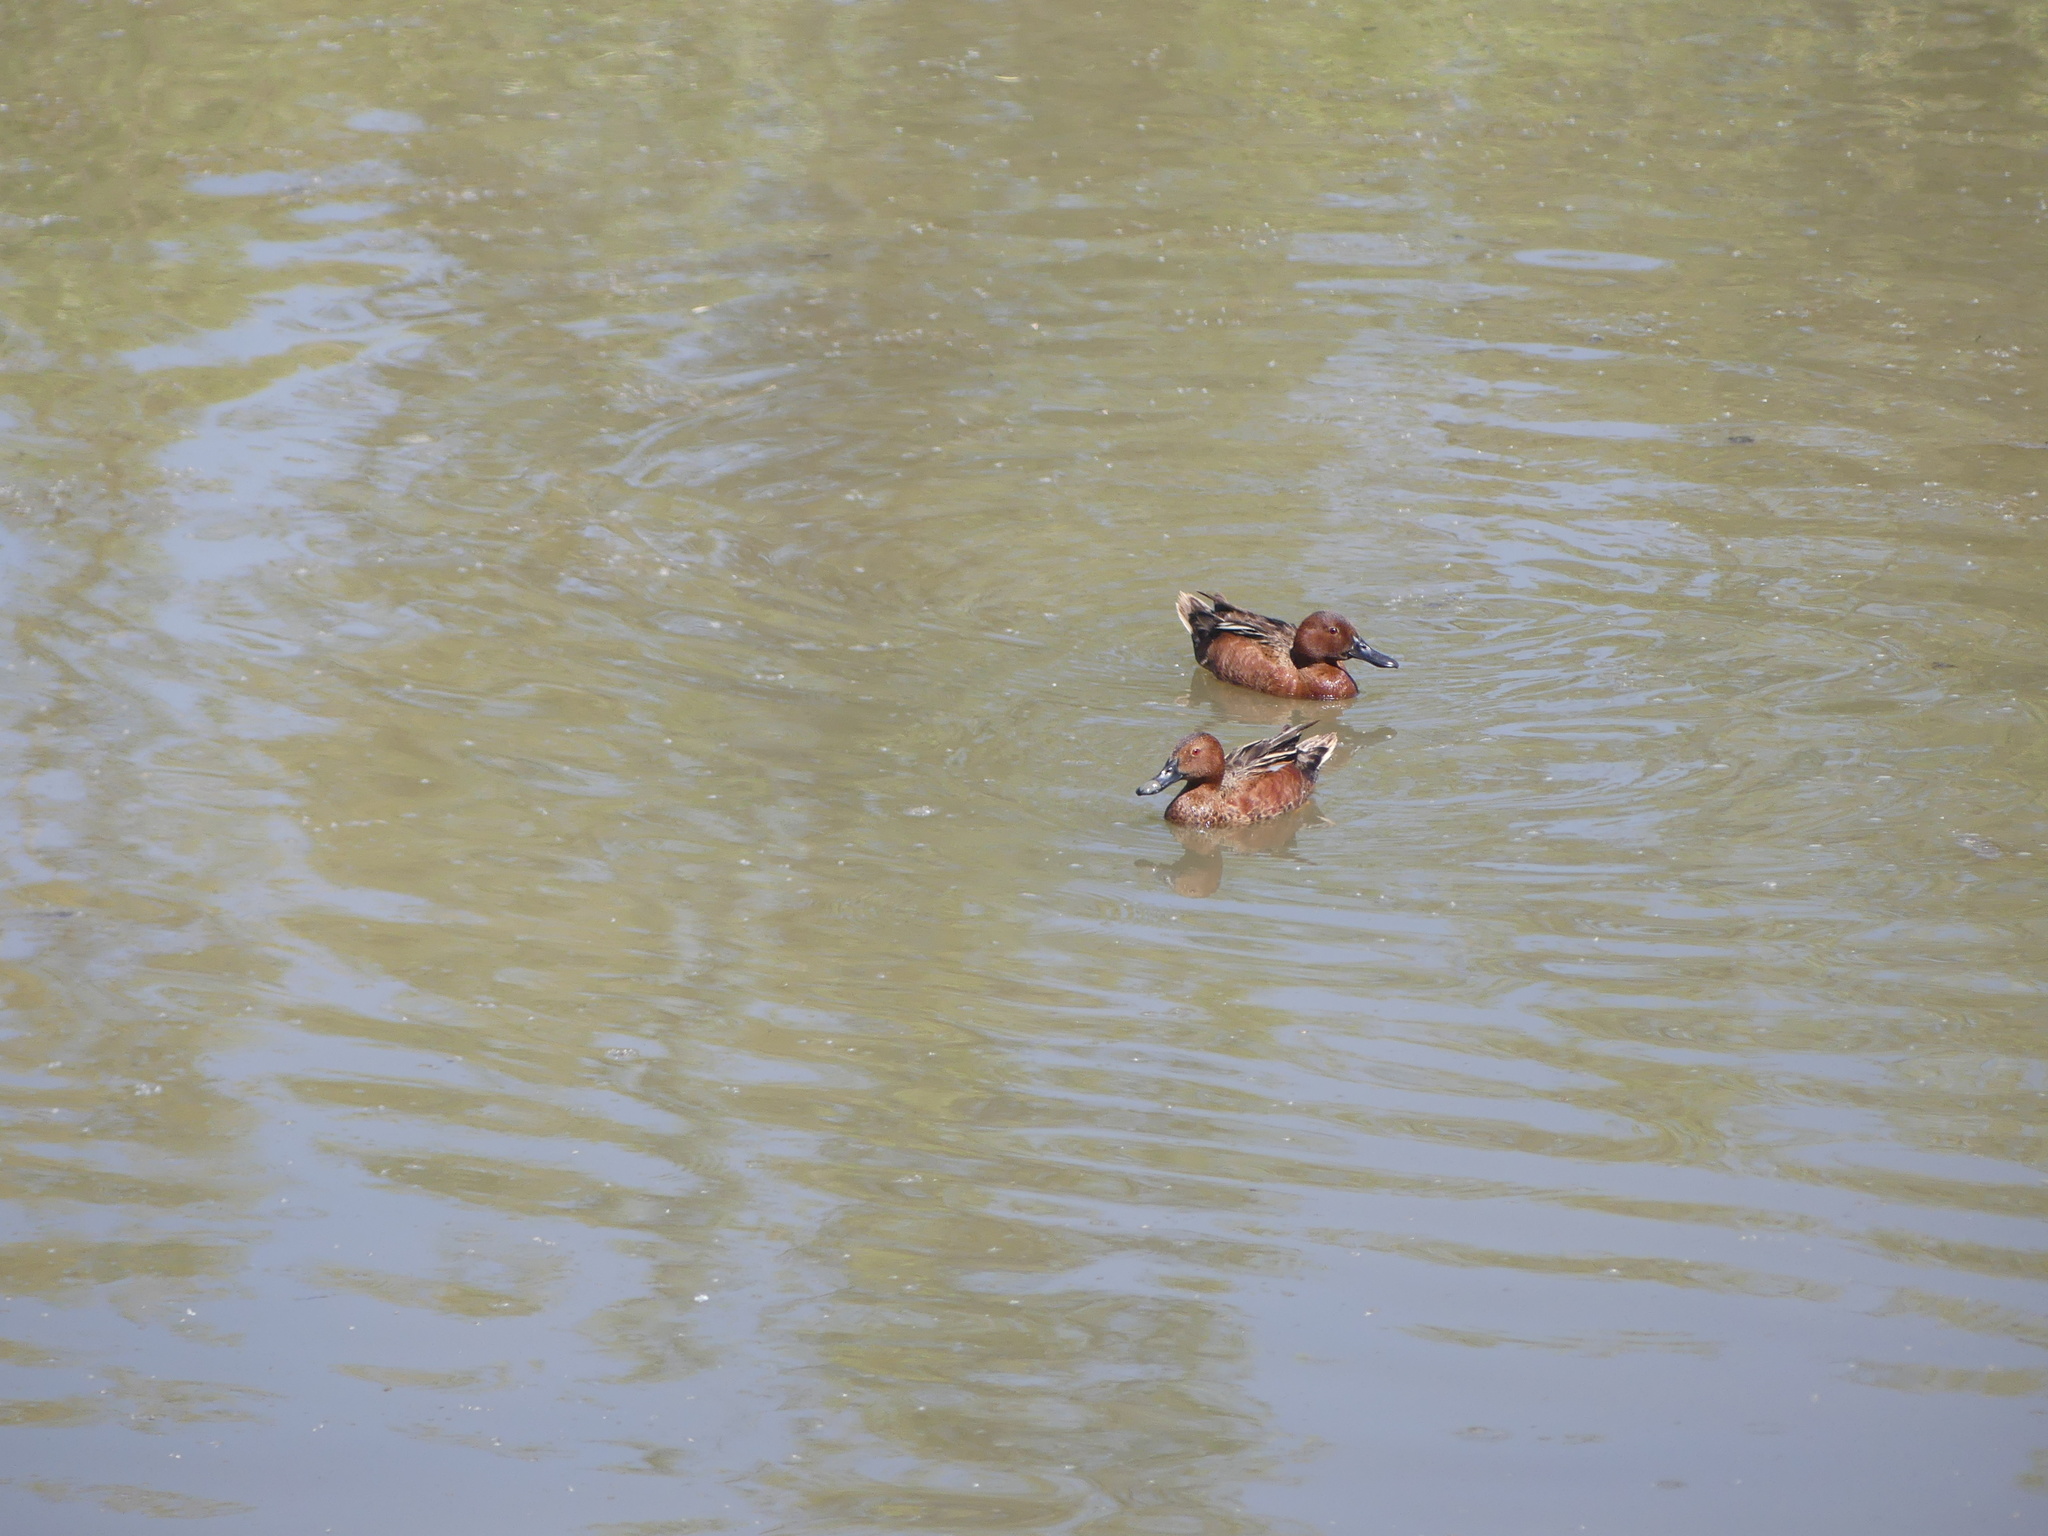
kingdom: Animalia
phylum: Chordata
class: Aves
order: Anseriformes
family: Anatidae
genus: Spatula
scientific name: Spatula cyanoptera
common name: Cinnamon teal
